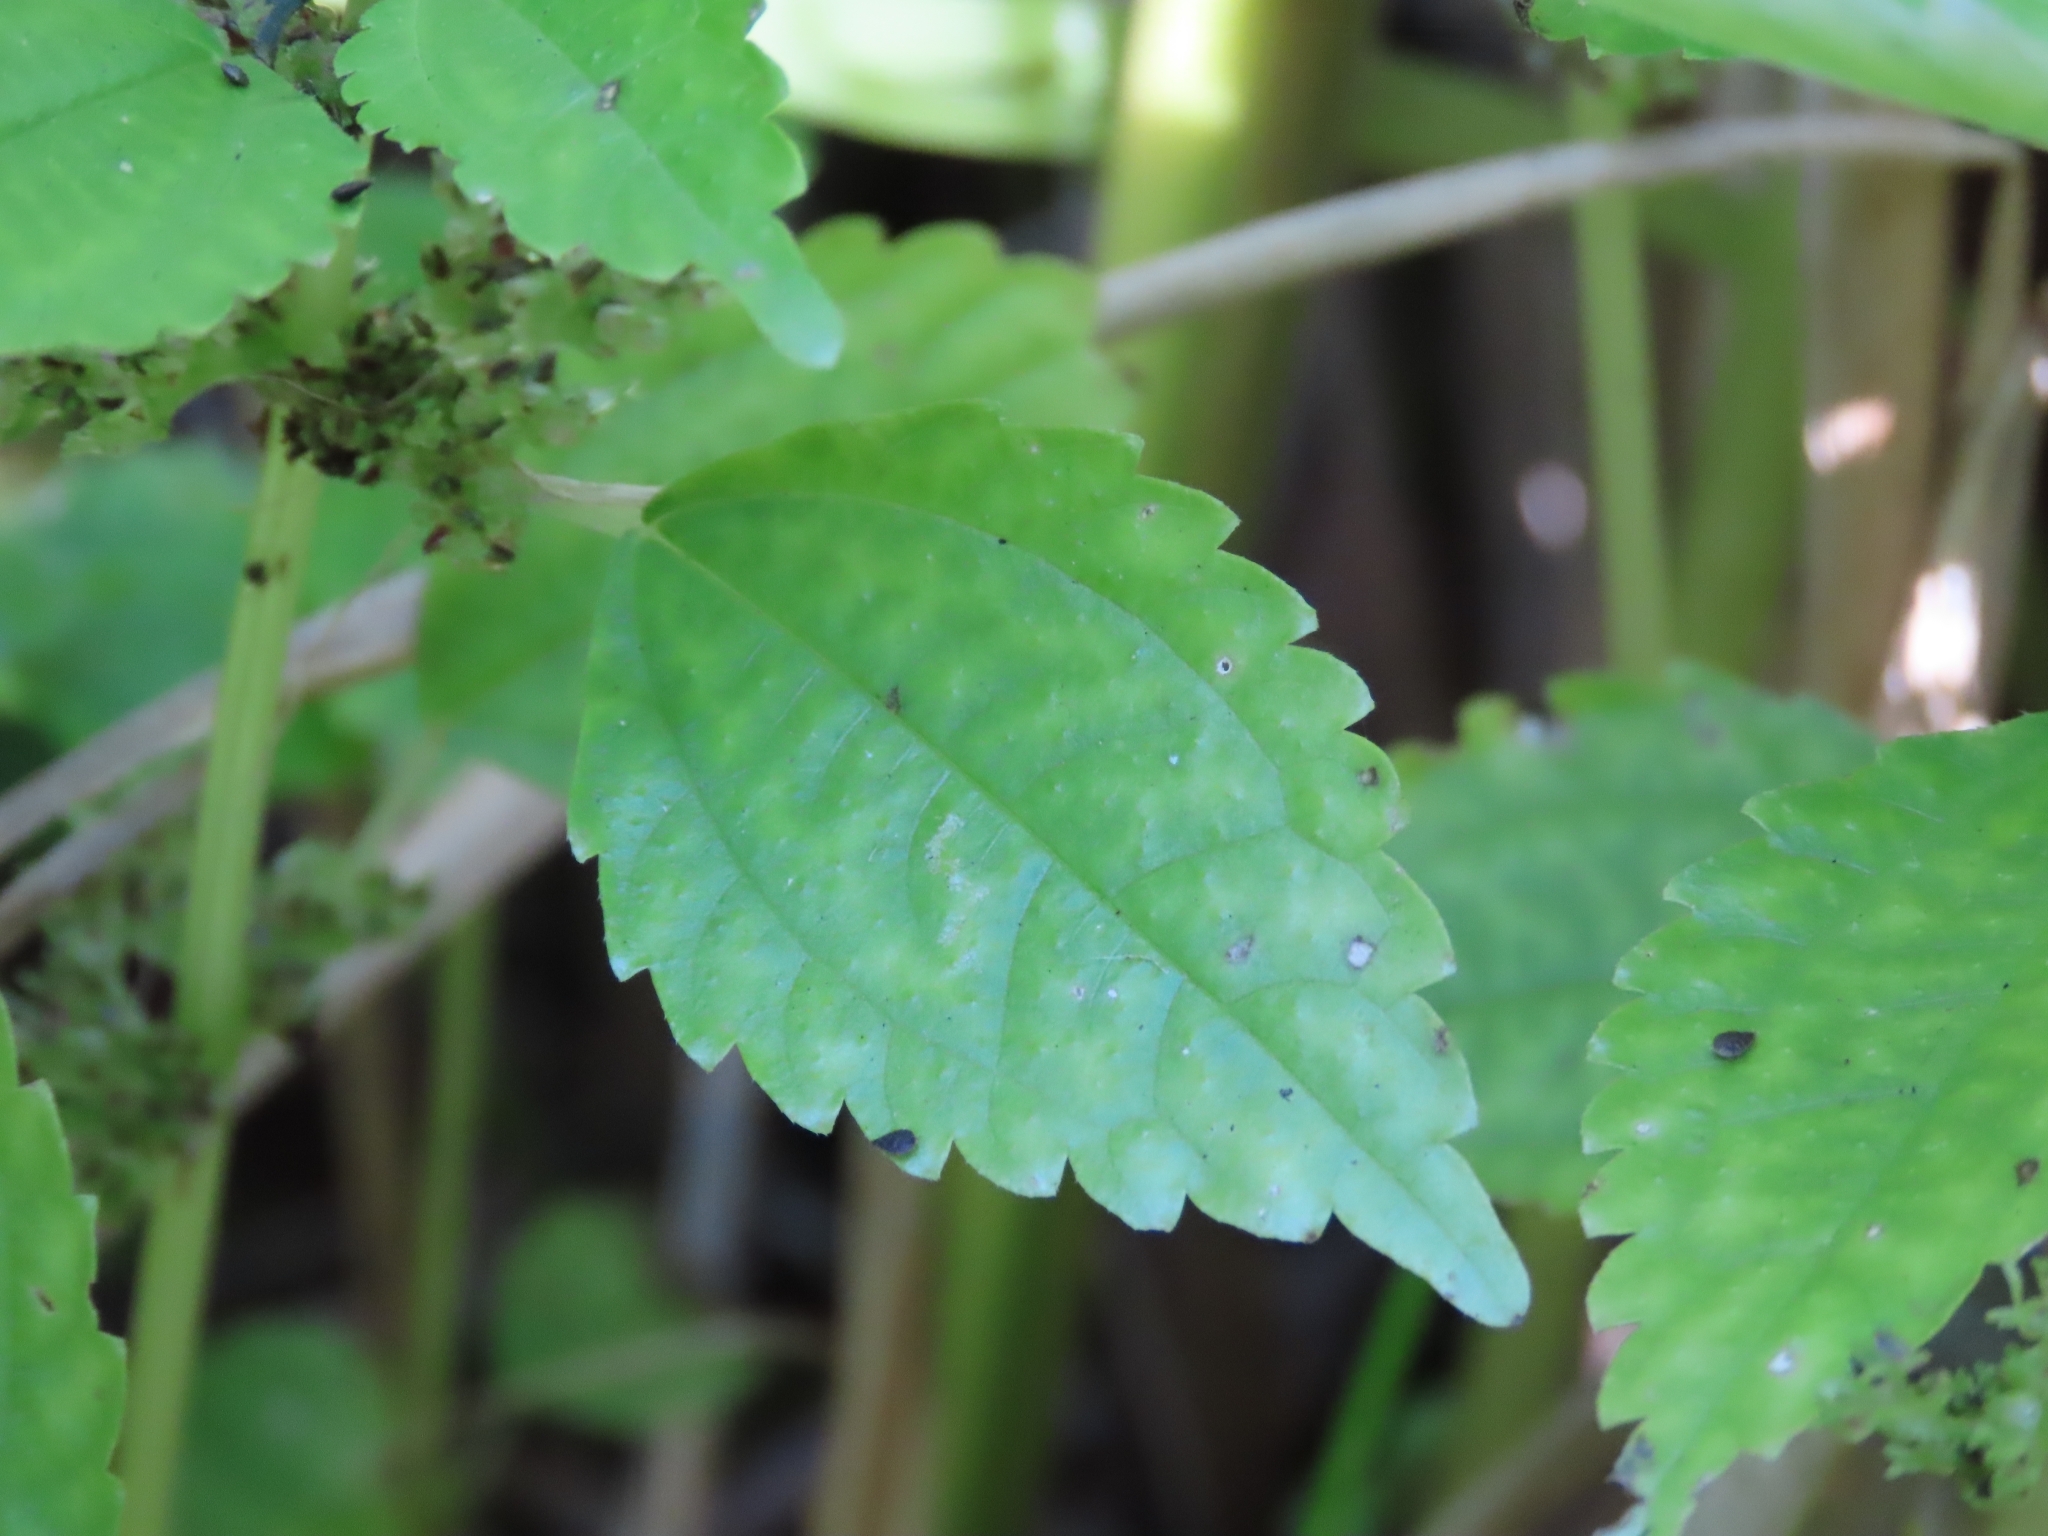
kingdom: Plantae
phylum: Tracheophyta
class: Magnoliopsida
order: Rosales
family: Urticaceae
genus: Pilea
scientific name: Pilea pumila
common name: Clearweed
